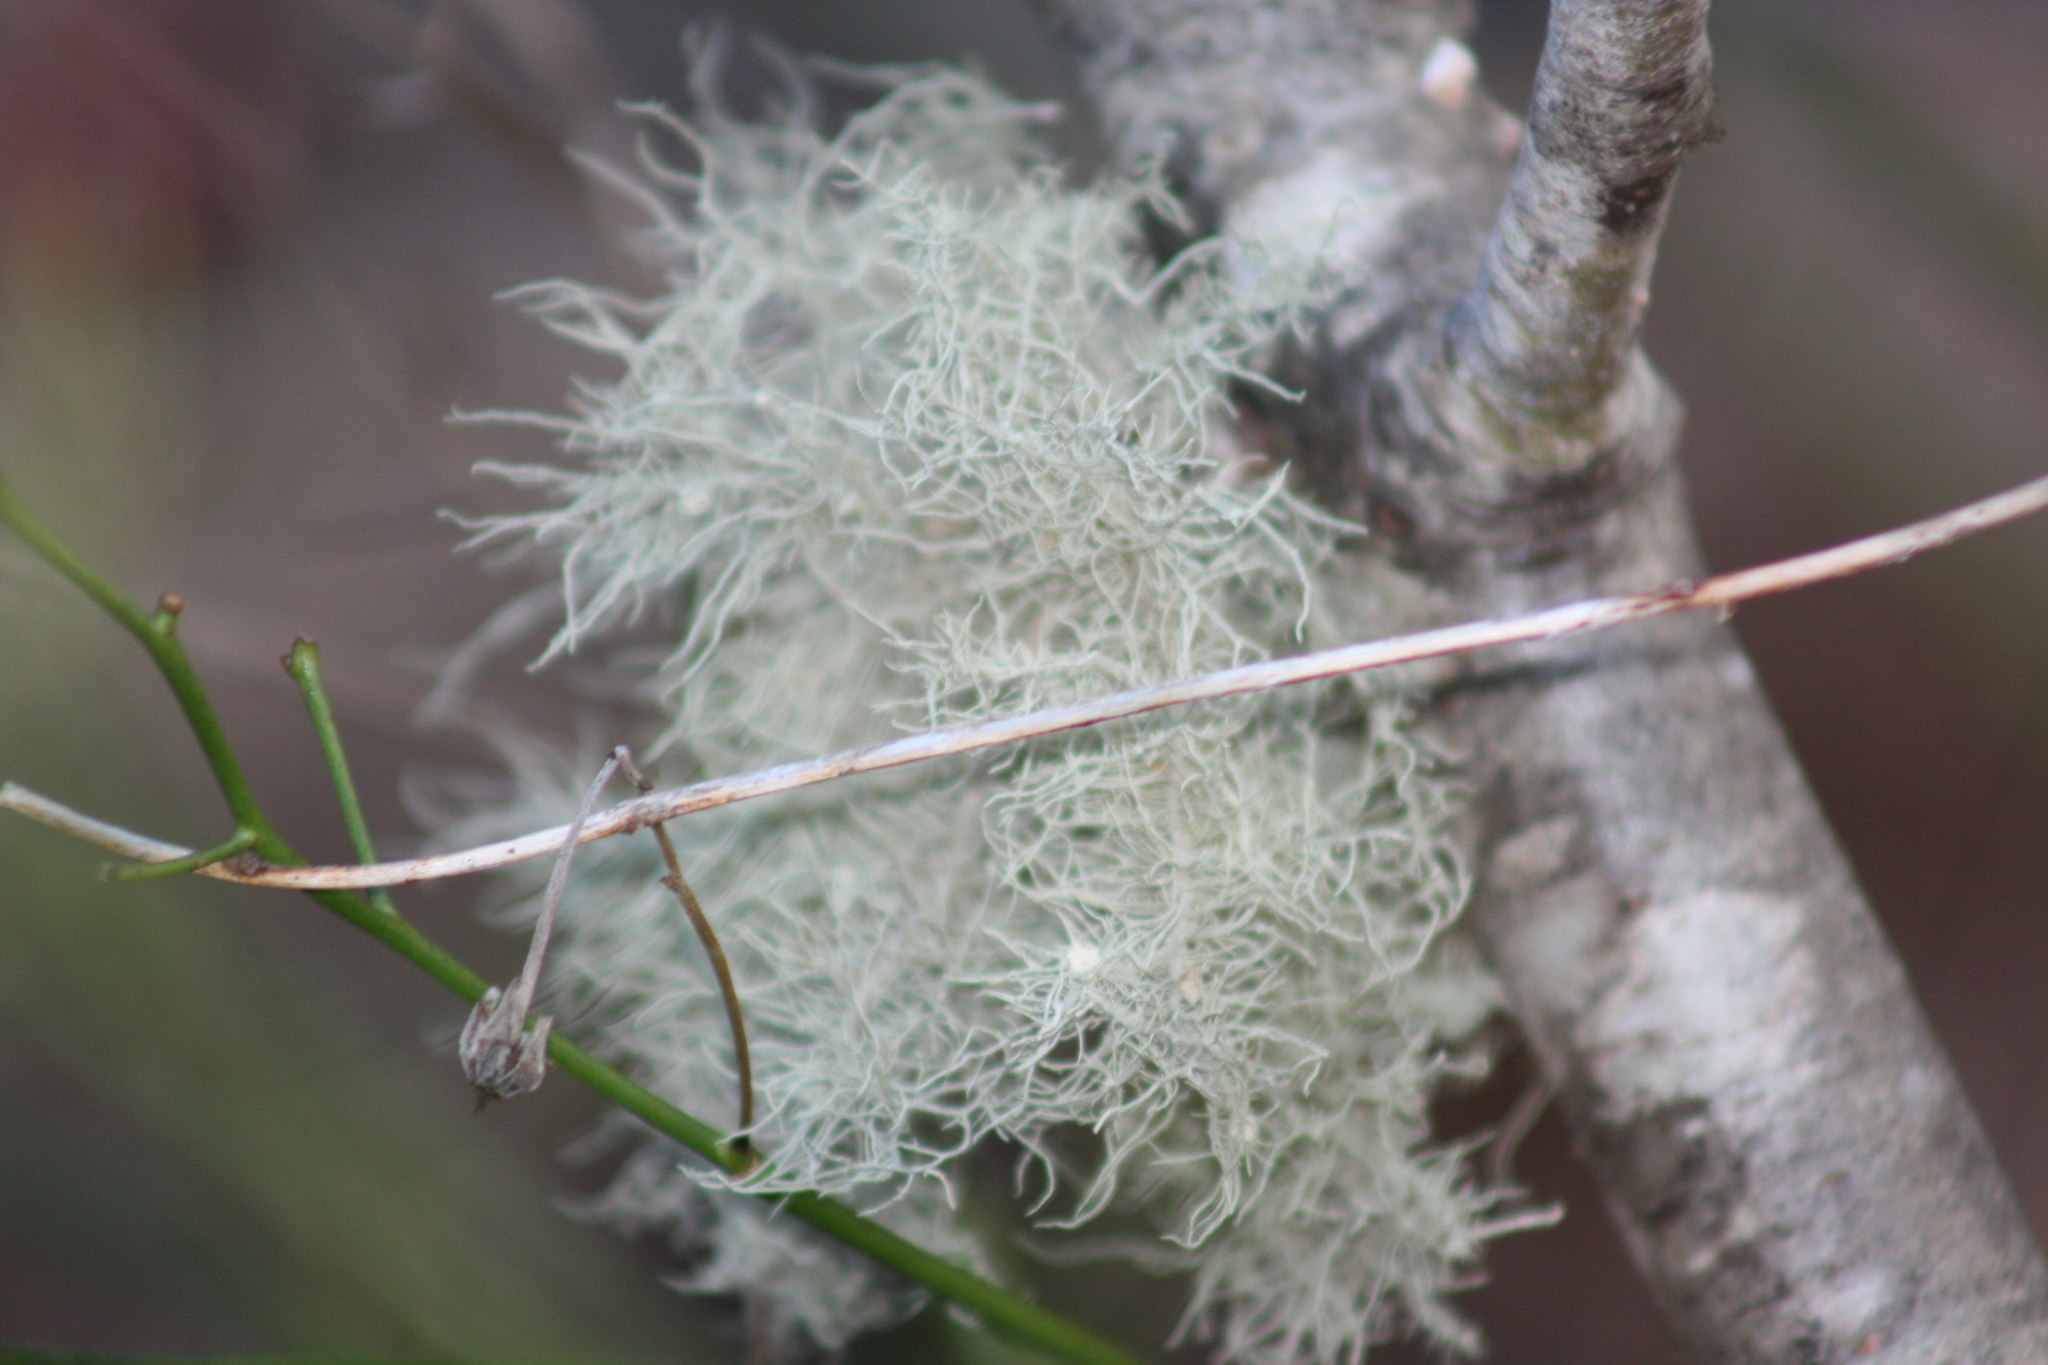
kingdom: Fungi
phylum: Ascomycota
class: Lecanoromycetes
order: Lecanorales
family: Parmeliaceae
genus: Usnea
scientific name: Usnea hirta
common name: Bristly beard lichen
